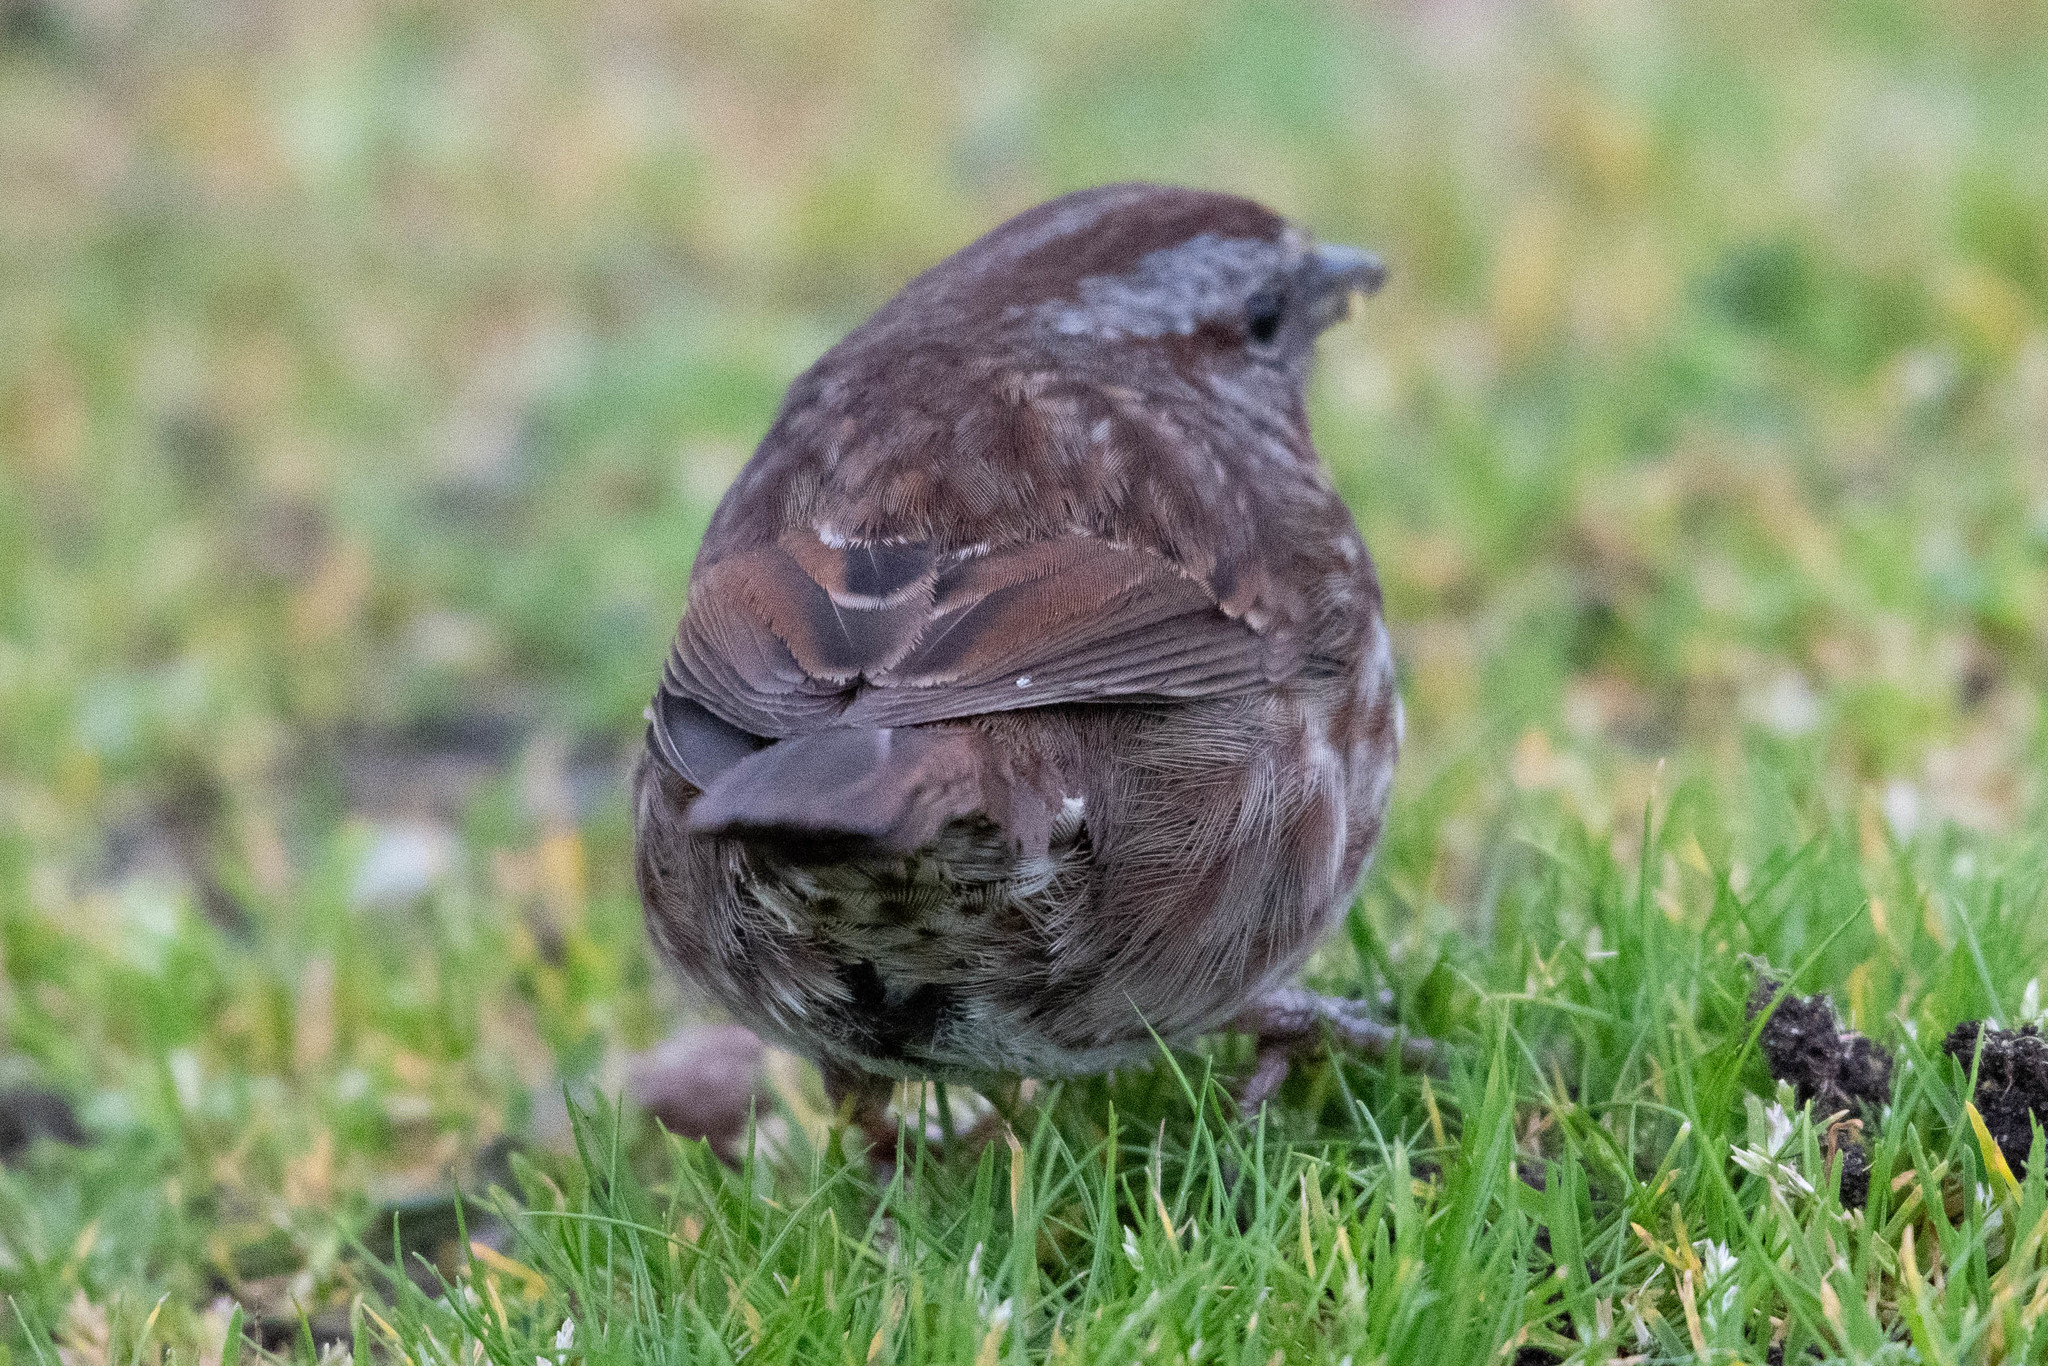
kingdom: Animalia
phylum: Chordata
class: Aves
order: Passeriformes
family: Passerellidae
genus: Melospiza
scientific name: Melospiza melodia
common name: Song sparrow
